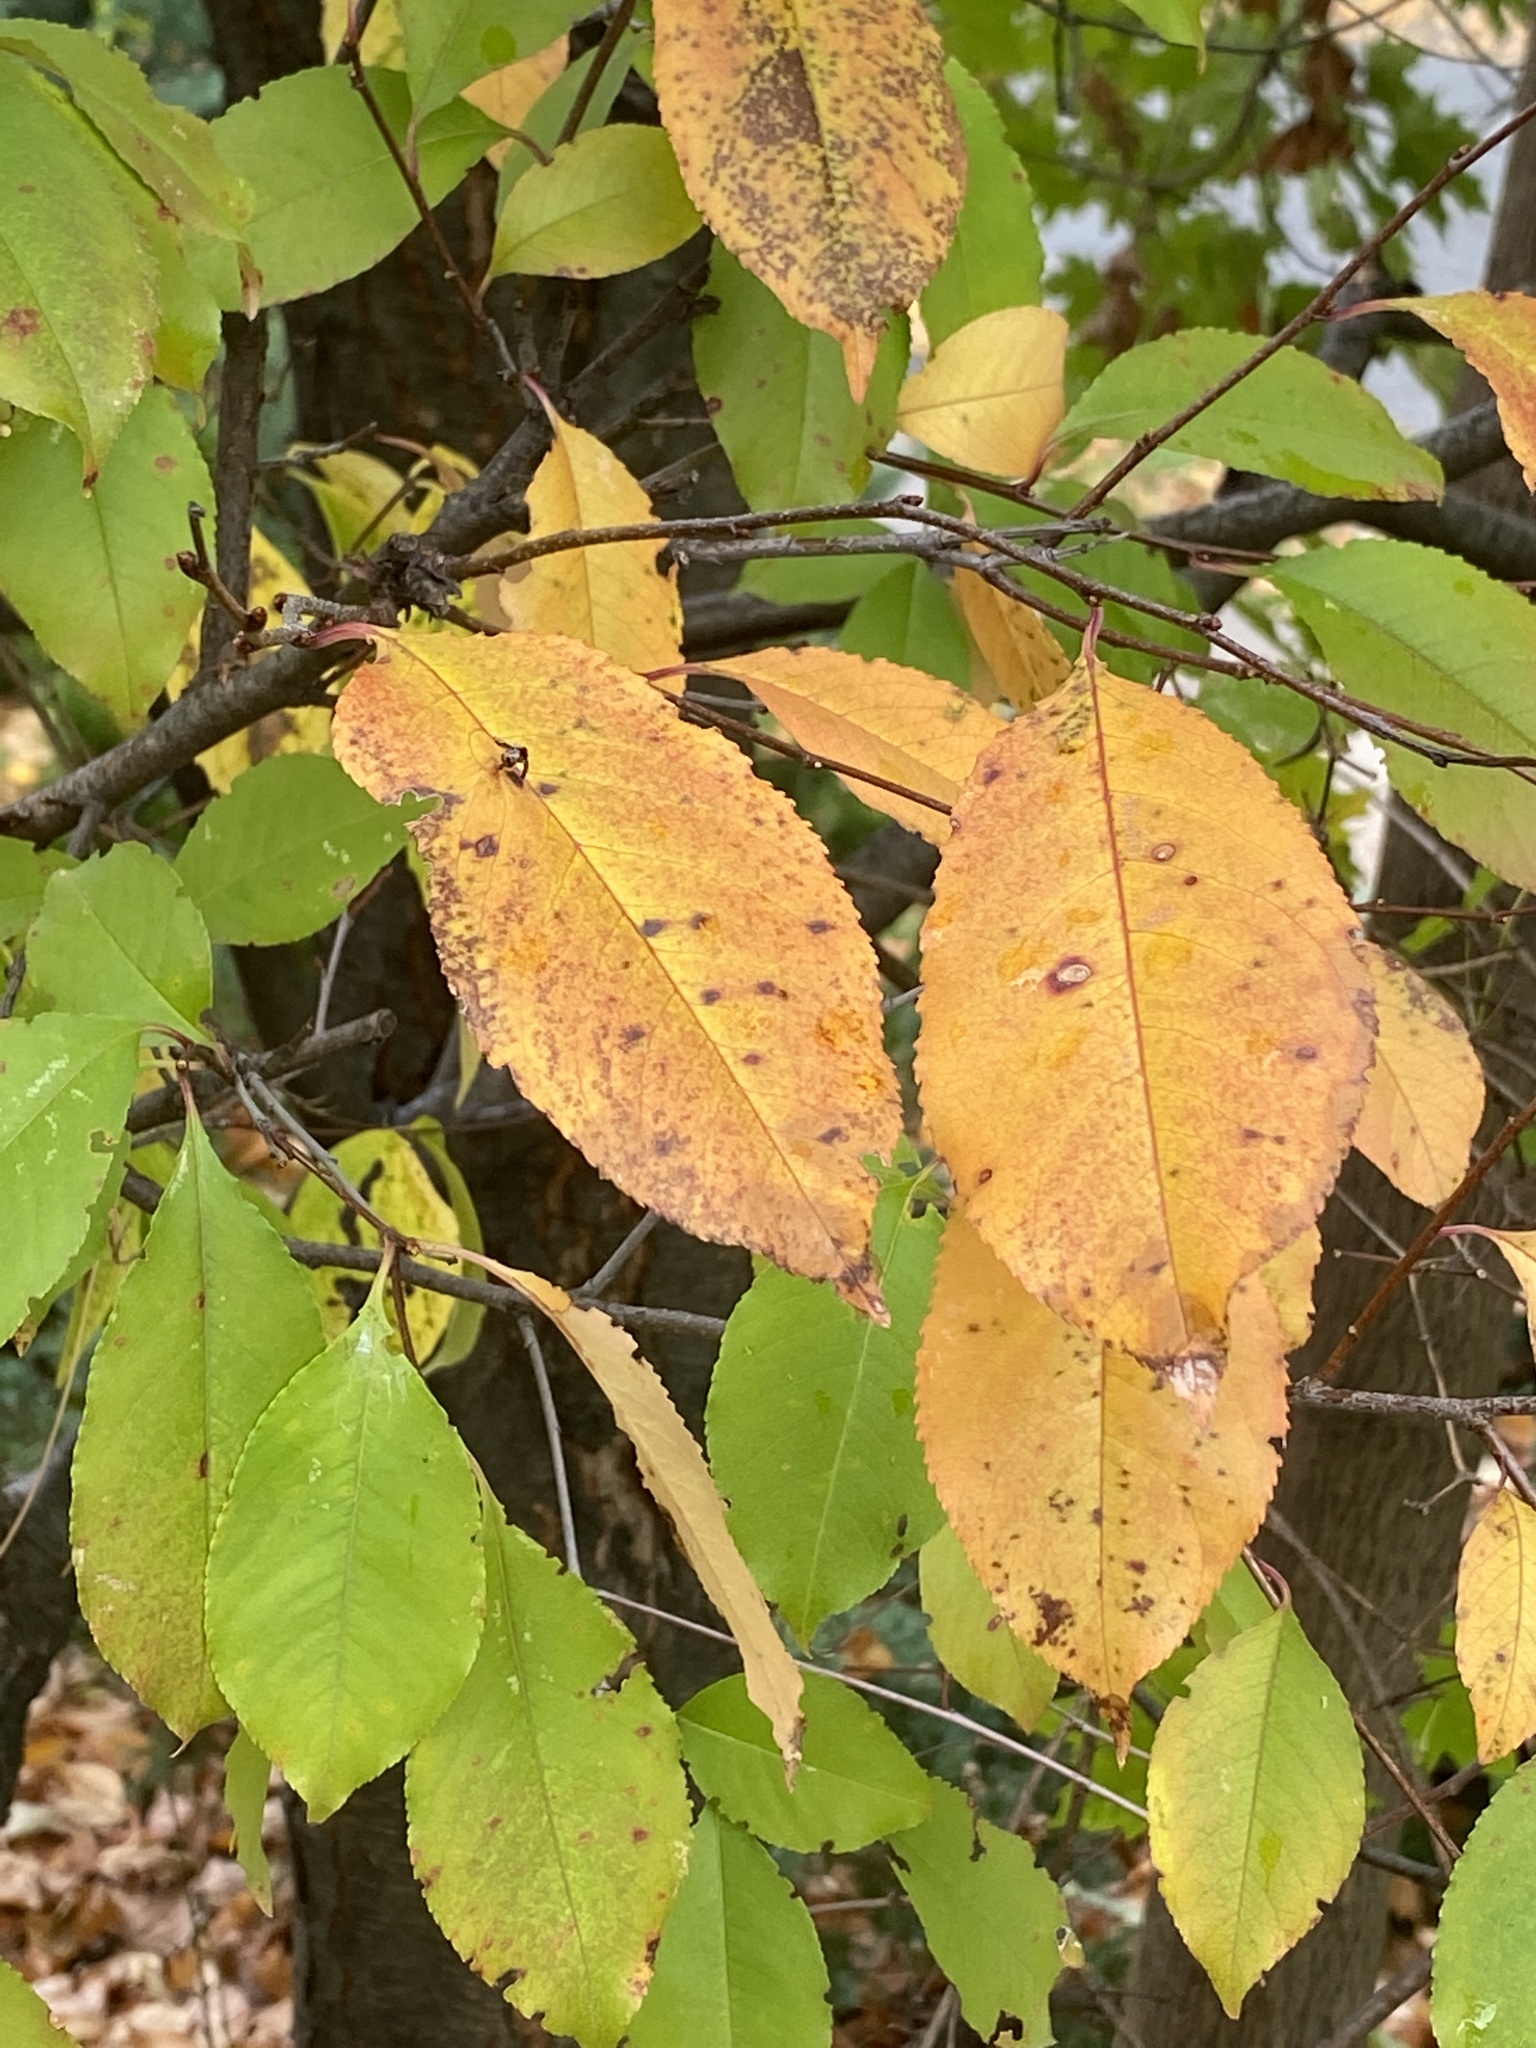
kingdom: Plantae
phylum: Tracheophyta
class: Magnoliopsida
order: Rosales
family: Rosaceae
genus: Prunus
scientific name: Prunus serotina
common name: Black cherry
